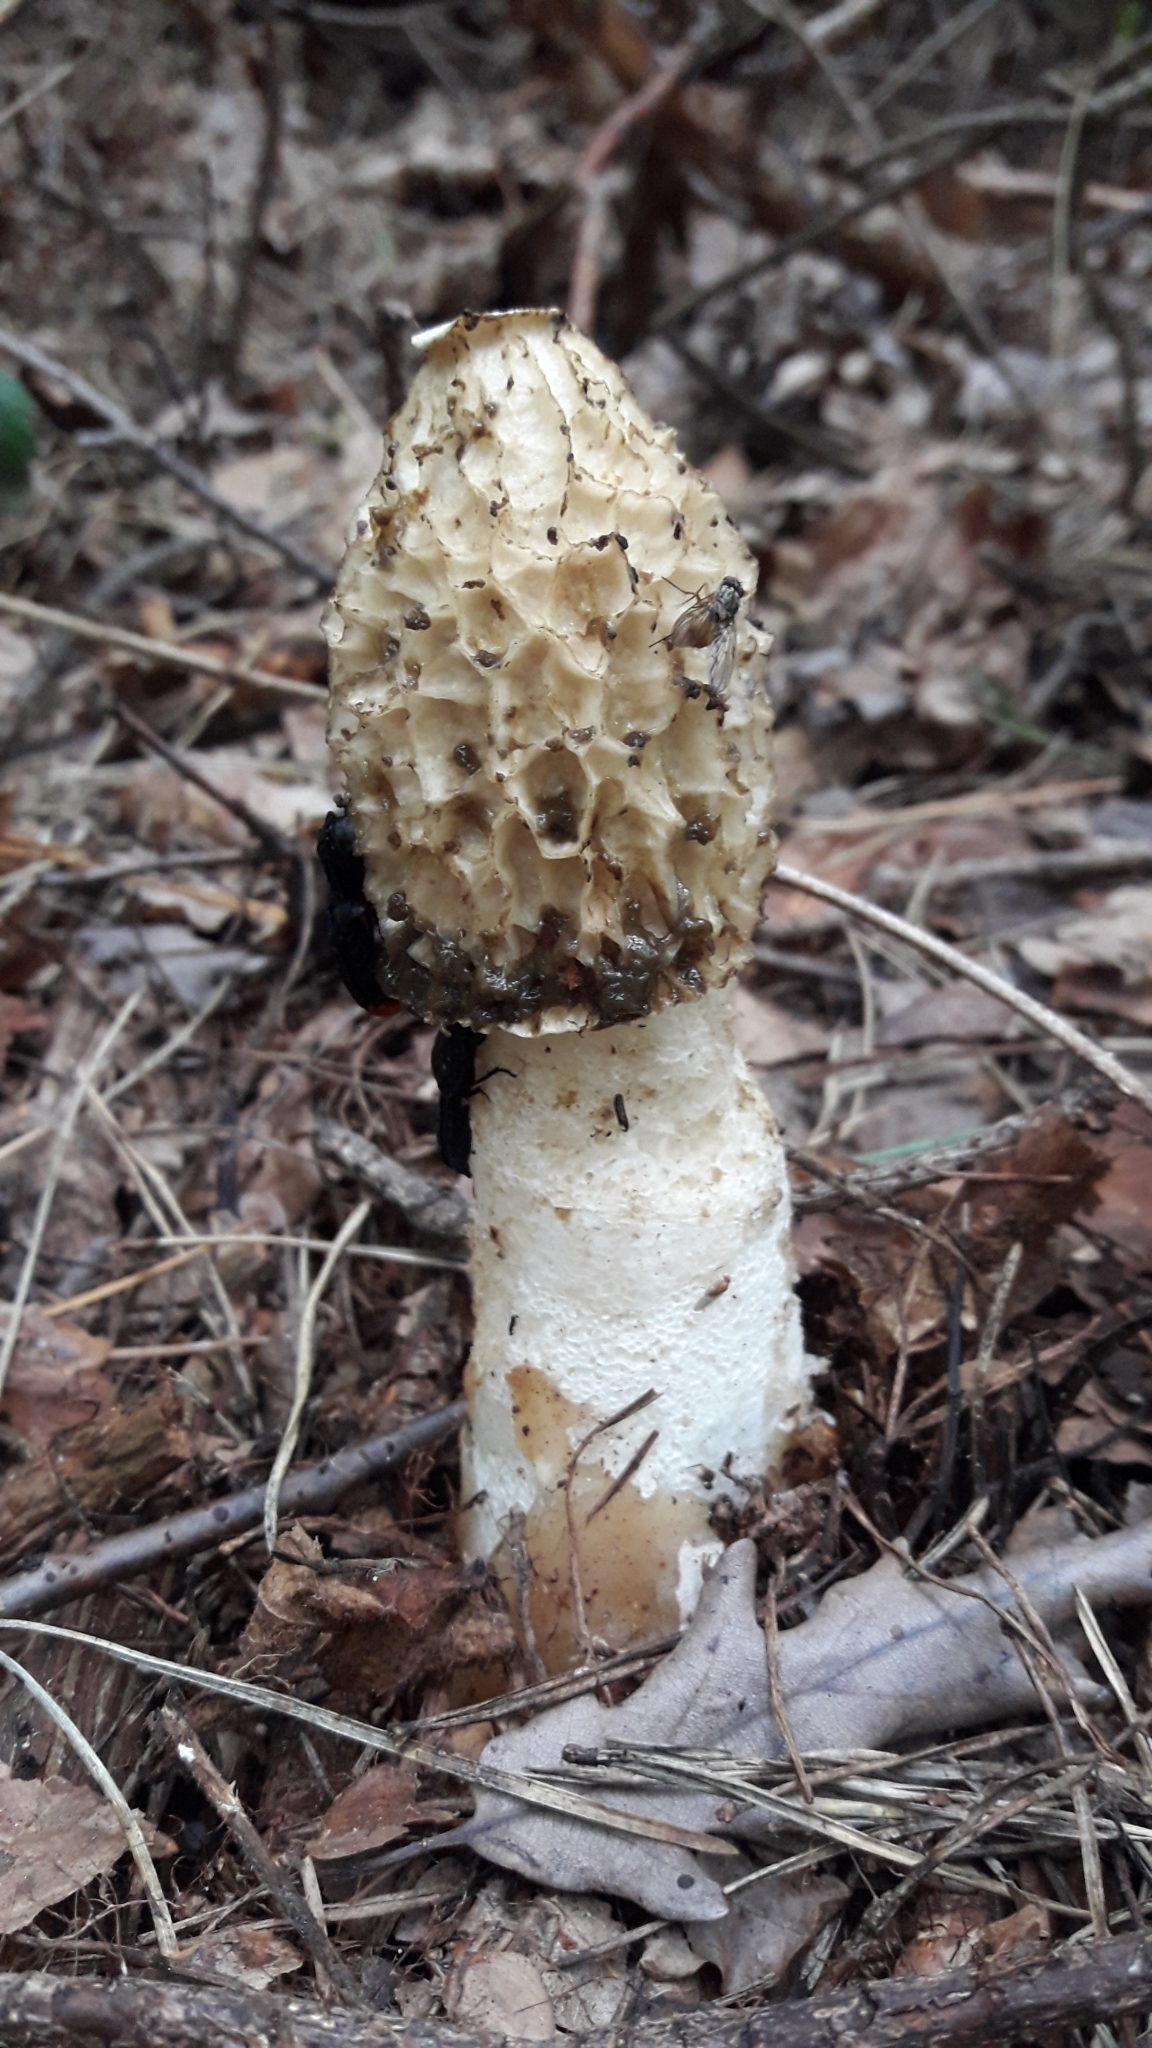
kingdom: Fungi
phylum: Basidiomycota
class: Agaricomycetes
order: Phallales
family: Phallaceae
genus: Phallus
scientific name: Phallus impudicus
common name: Common stinkhorn
